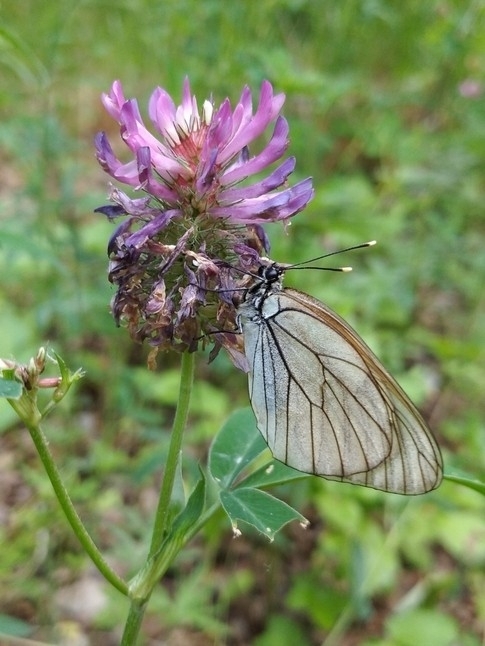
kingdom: Animalia
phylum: Arthropoda
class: Insecta
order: Lepidoptera
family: Pieridae
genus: Aporia
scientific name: Aporia crataegi
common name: Black-veined white
